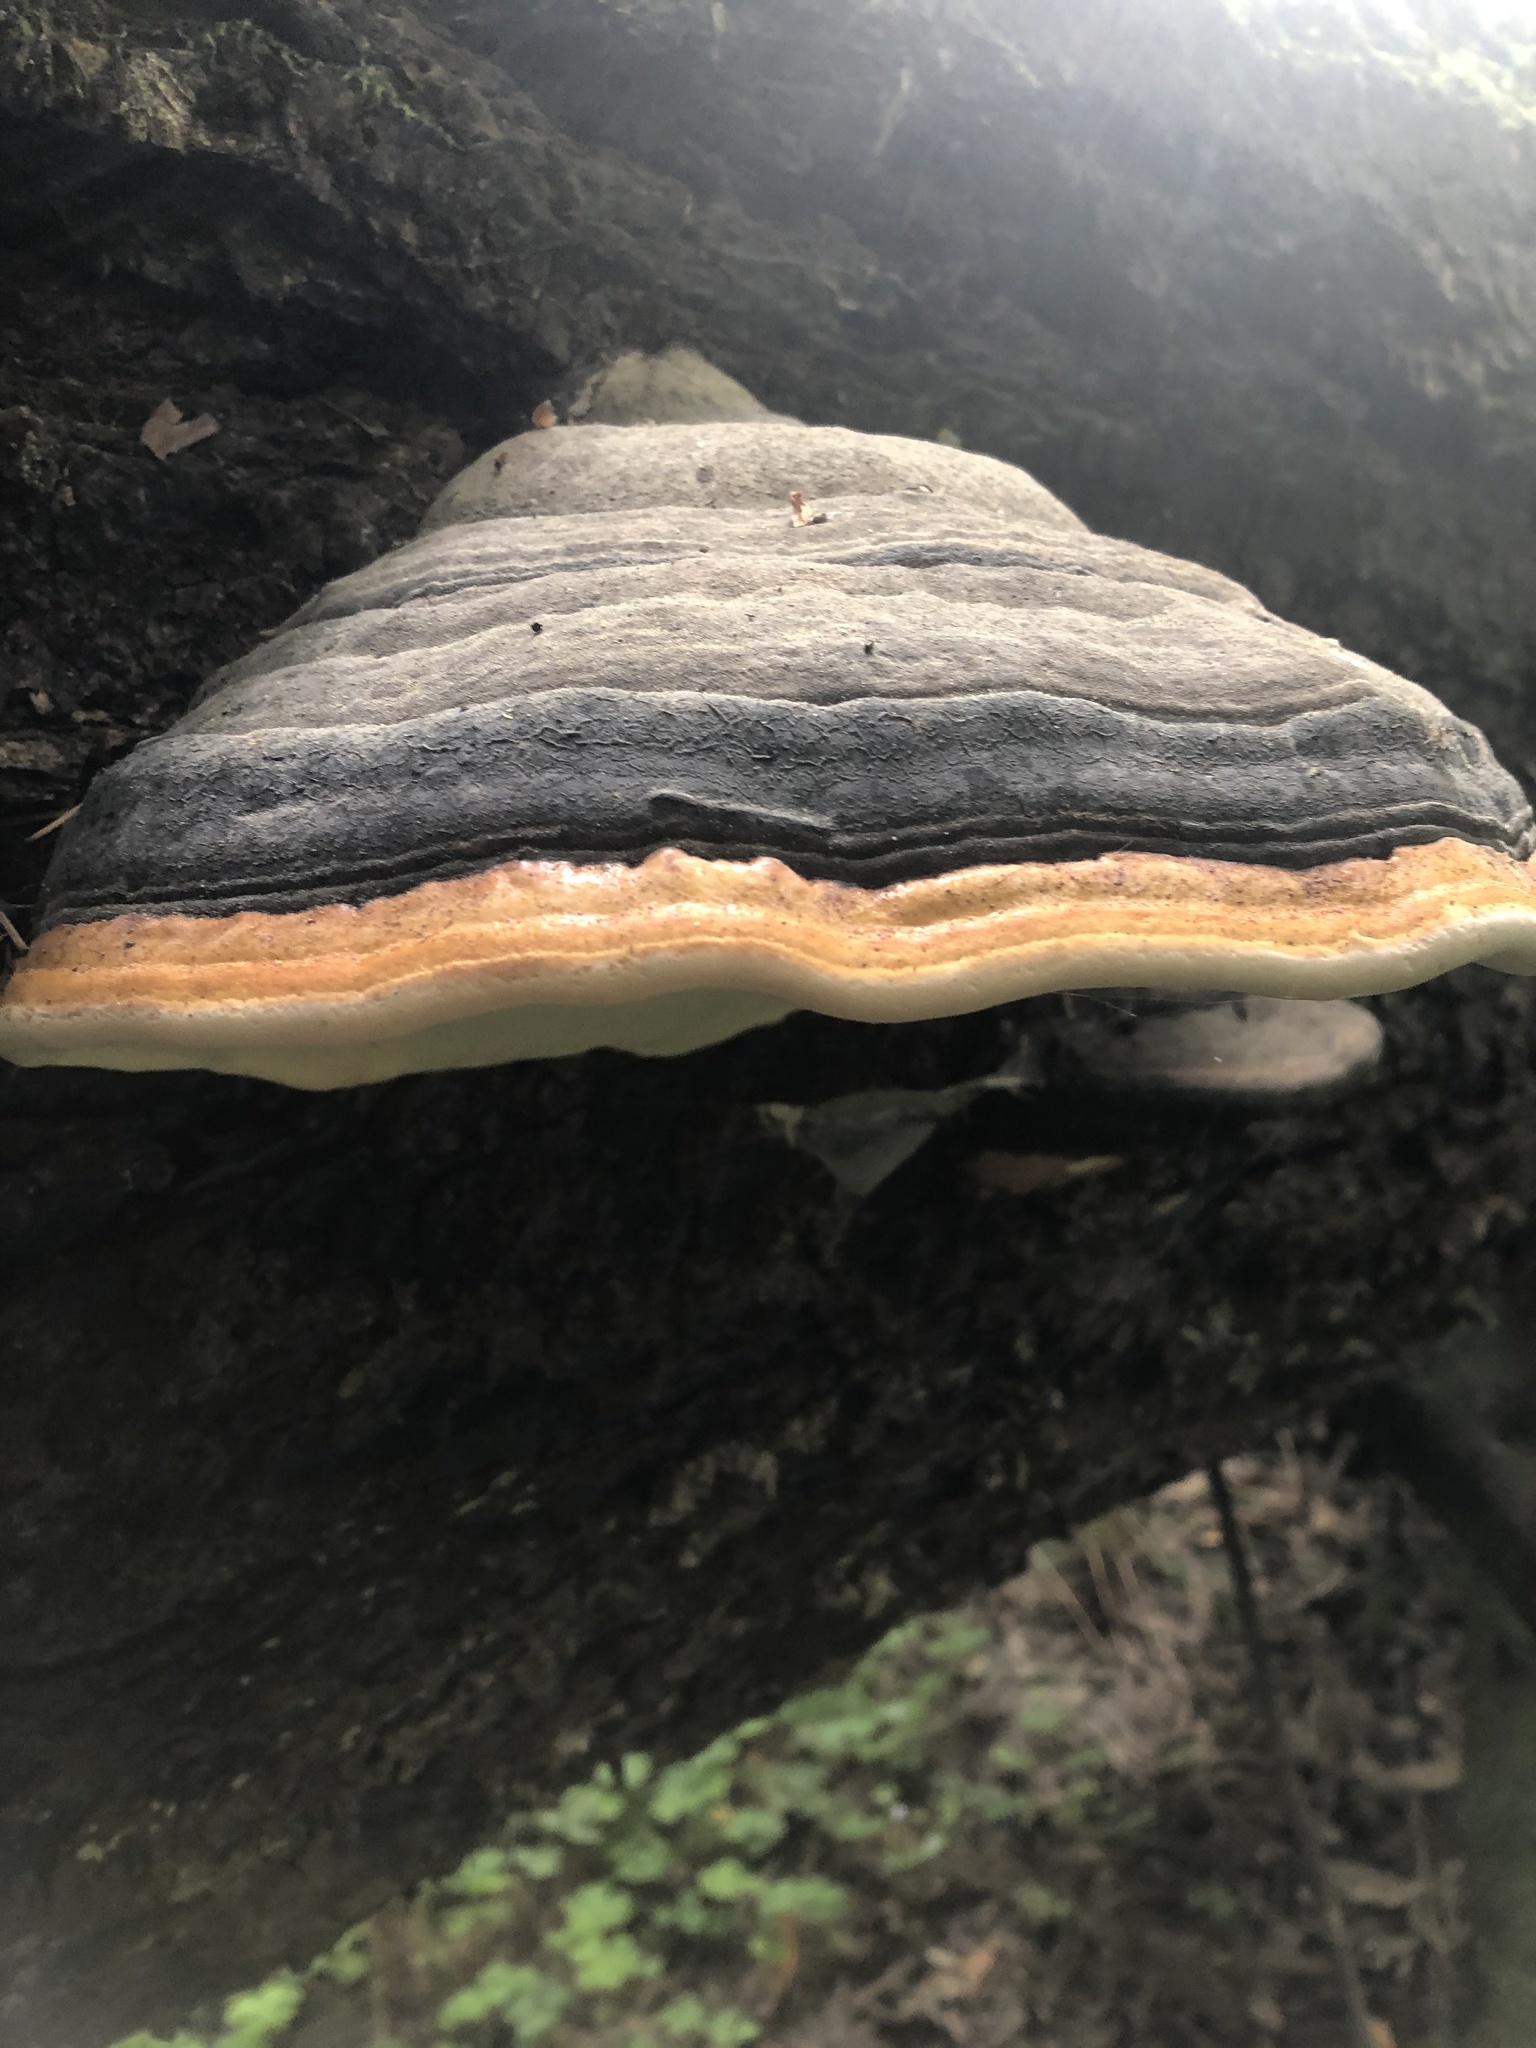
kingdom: Fungi
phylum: Basidiomycota
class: Agaricomycetes
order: Polyporales
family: Fomitopsidaceae
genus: Fomitopsis
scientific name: Fomitopsis mounceae
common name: Northern red belt
